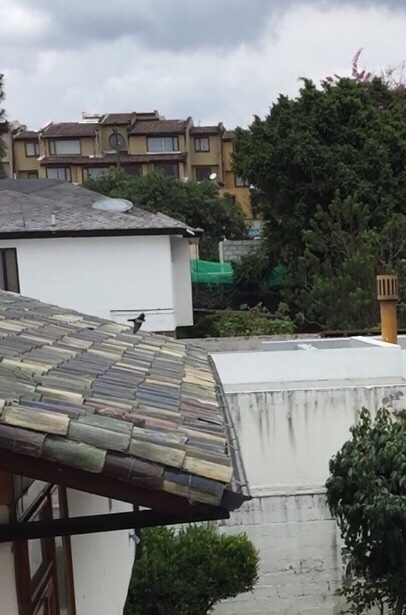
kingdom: Animalia
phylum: Chordata
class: Aves
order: Passeriformes
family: Hirundinidae
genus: Notiochelidon
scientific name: Notiochelidon cyanoleuca
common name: Blue-and-white swallow
